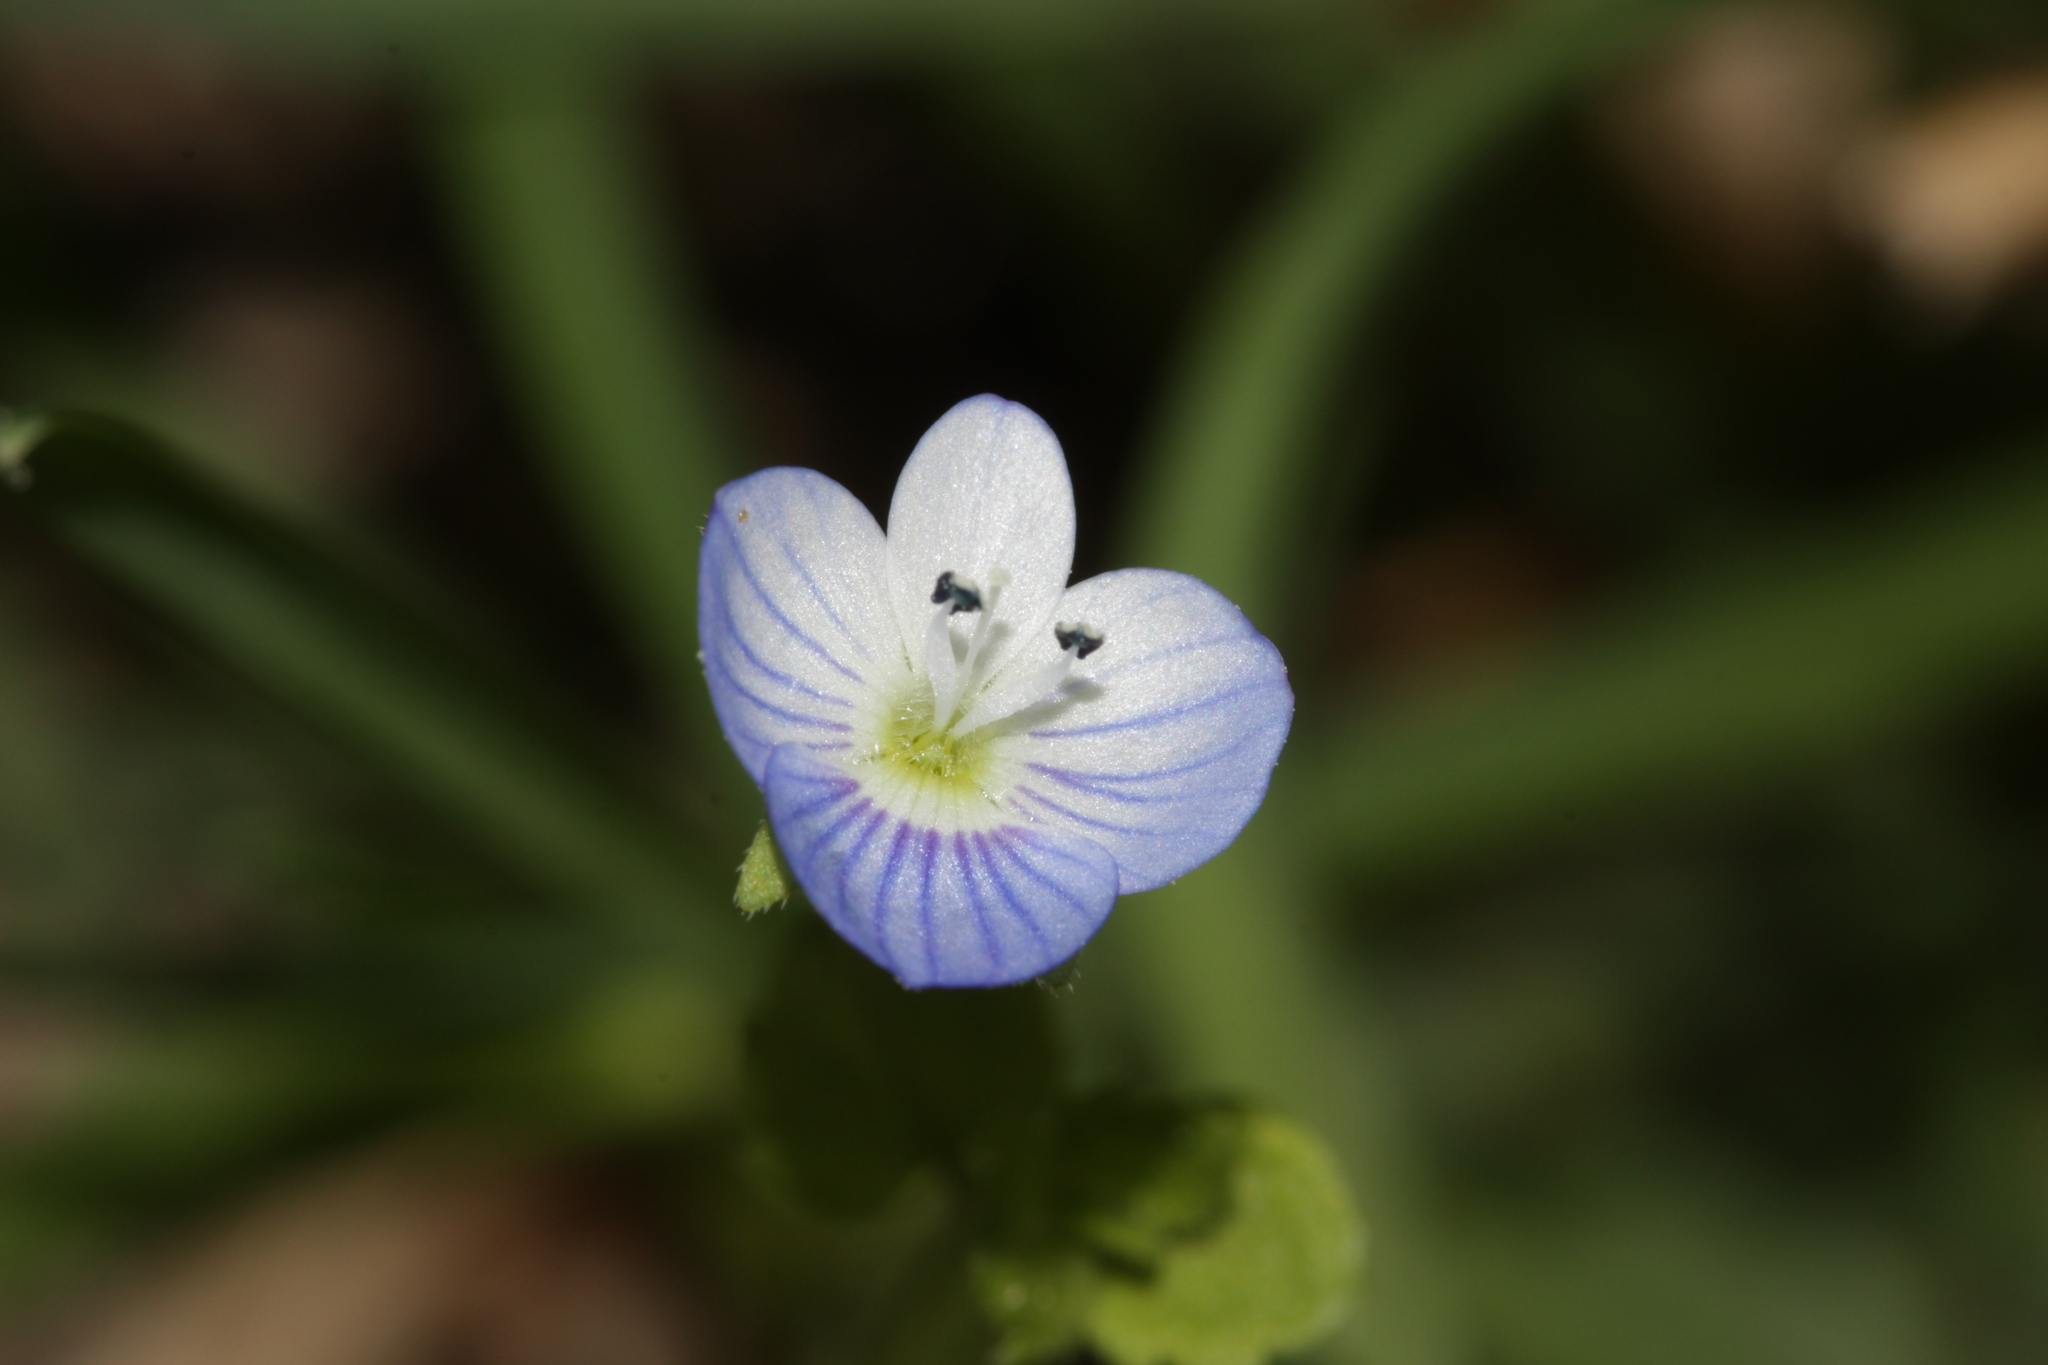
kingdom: Plantae
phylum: Tracheophyta
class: Magnoliopsida
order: Lamiales
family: Plantaginaceae
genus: Veronica
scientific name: Veronica persica
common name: Common field-speedwell
